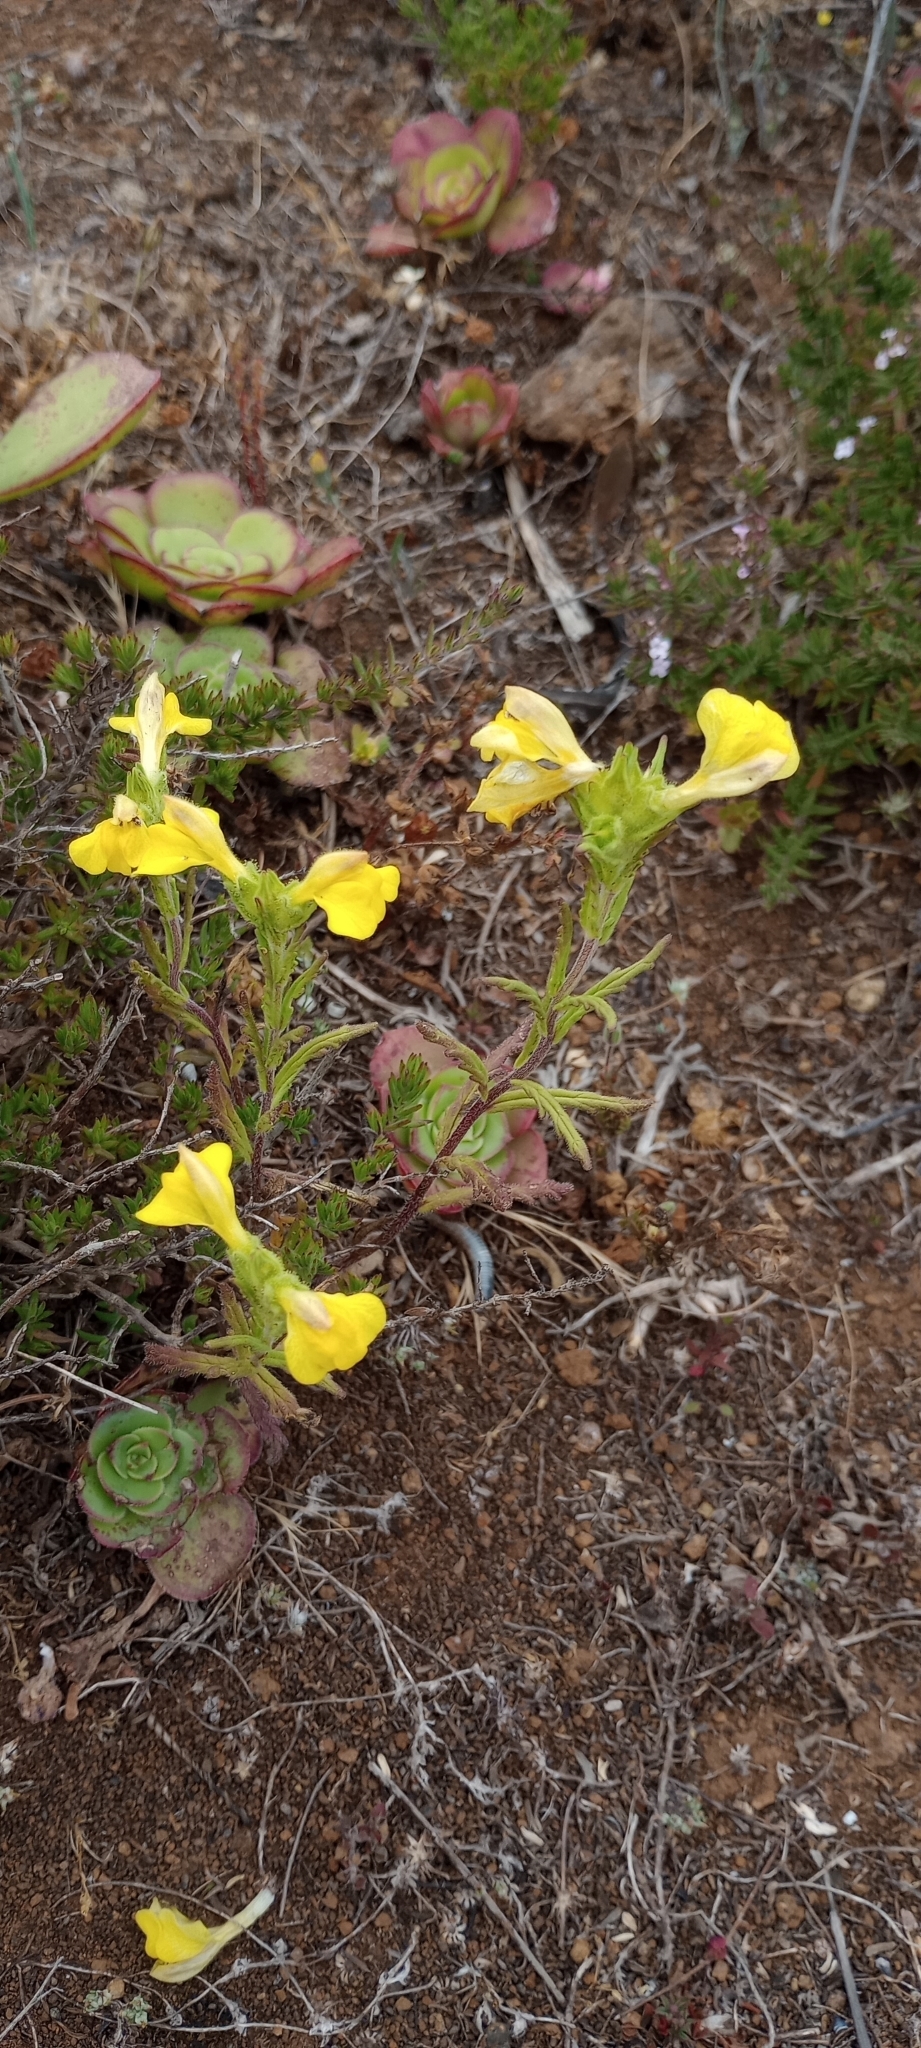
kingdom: Plantae
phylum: Tracheophyta
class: Magnoliopsida
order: Lamiales
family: Orobanchaceae
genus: Bellardia
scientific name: Bellardia trixago
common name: Mediterranean lineseed
